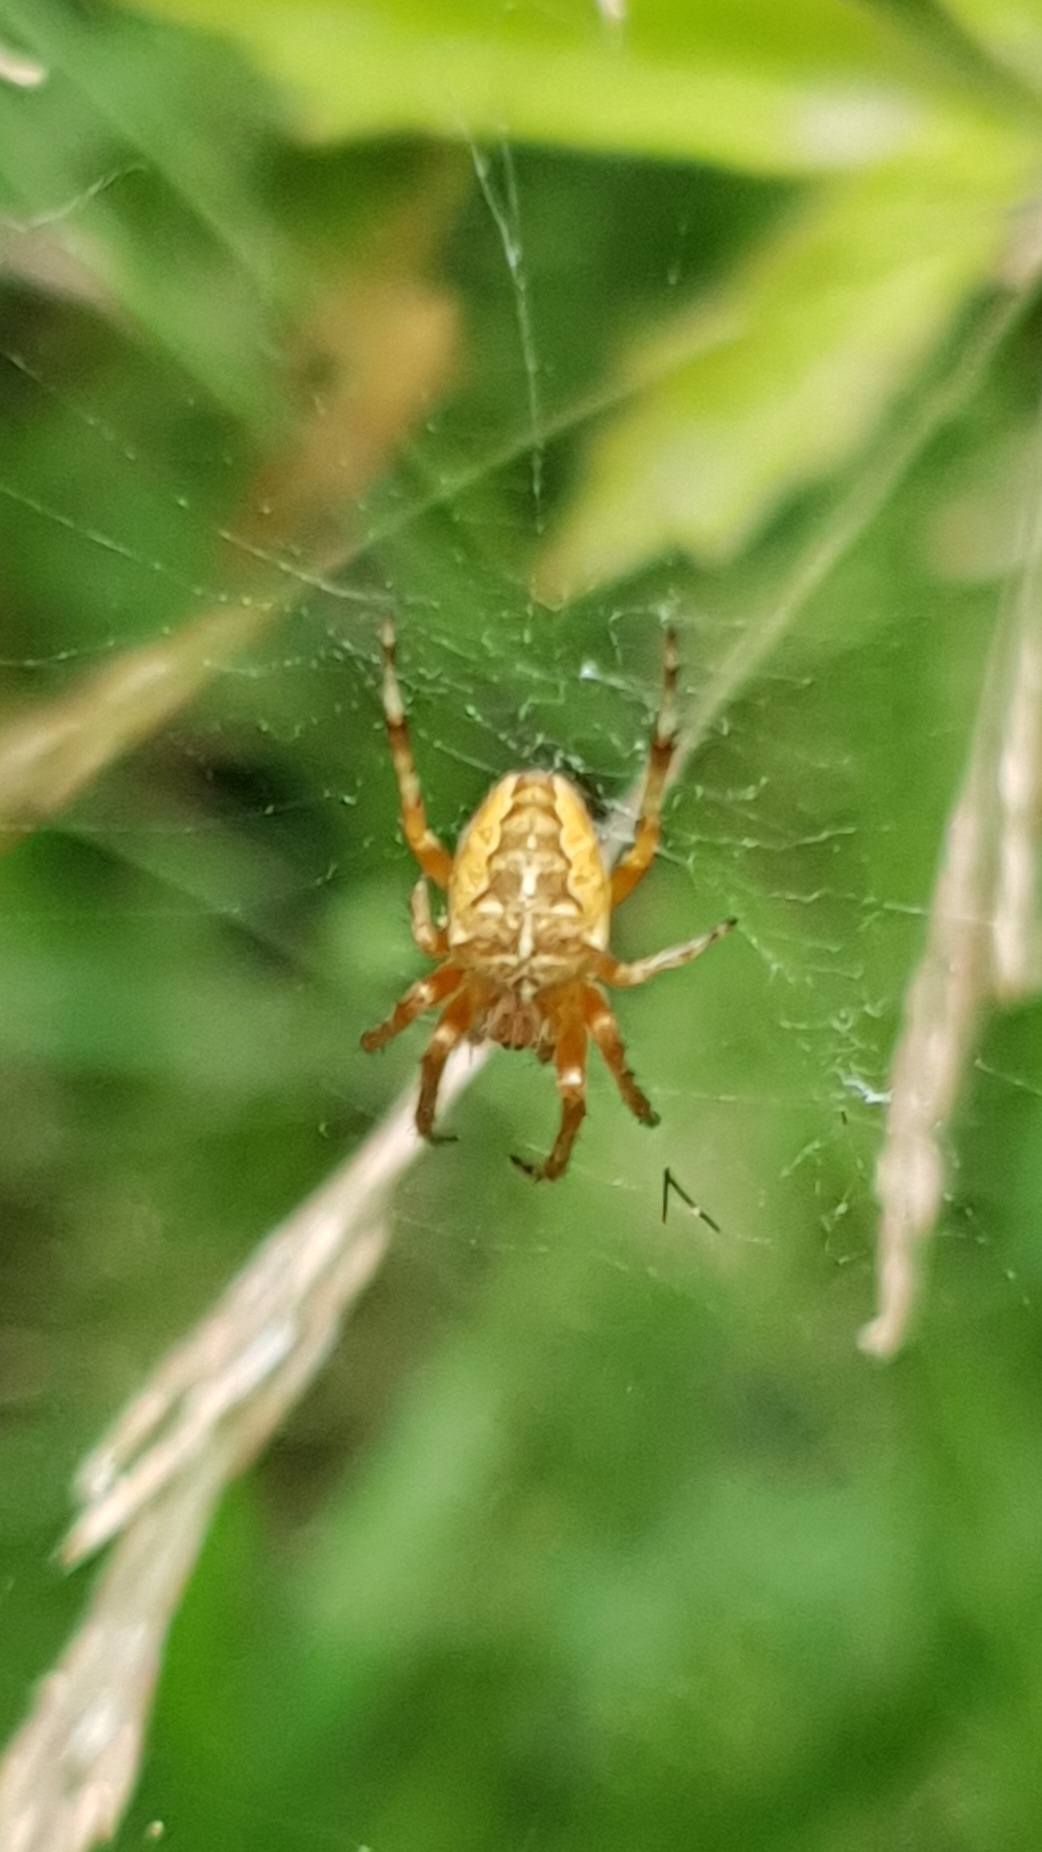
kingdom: Animalia
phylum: Arthropoda
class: Arachnida
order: Araneae
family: Araneidae
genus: Araneus
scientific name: Araneus diadematus
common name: Cross orbweaver
